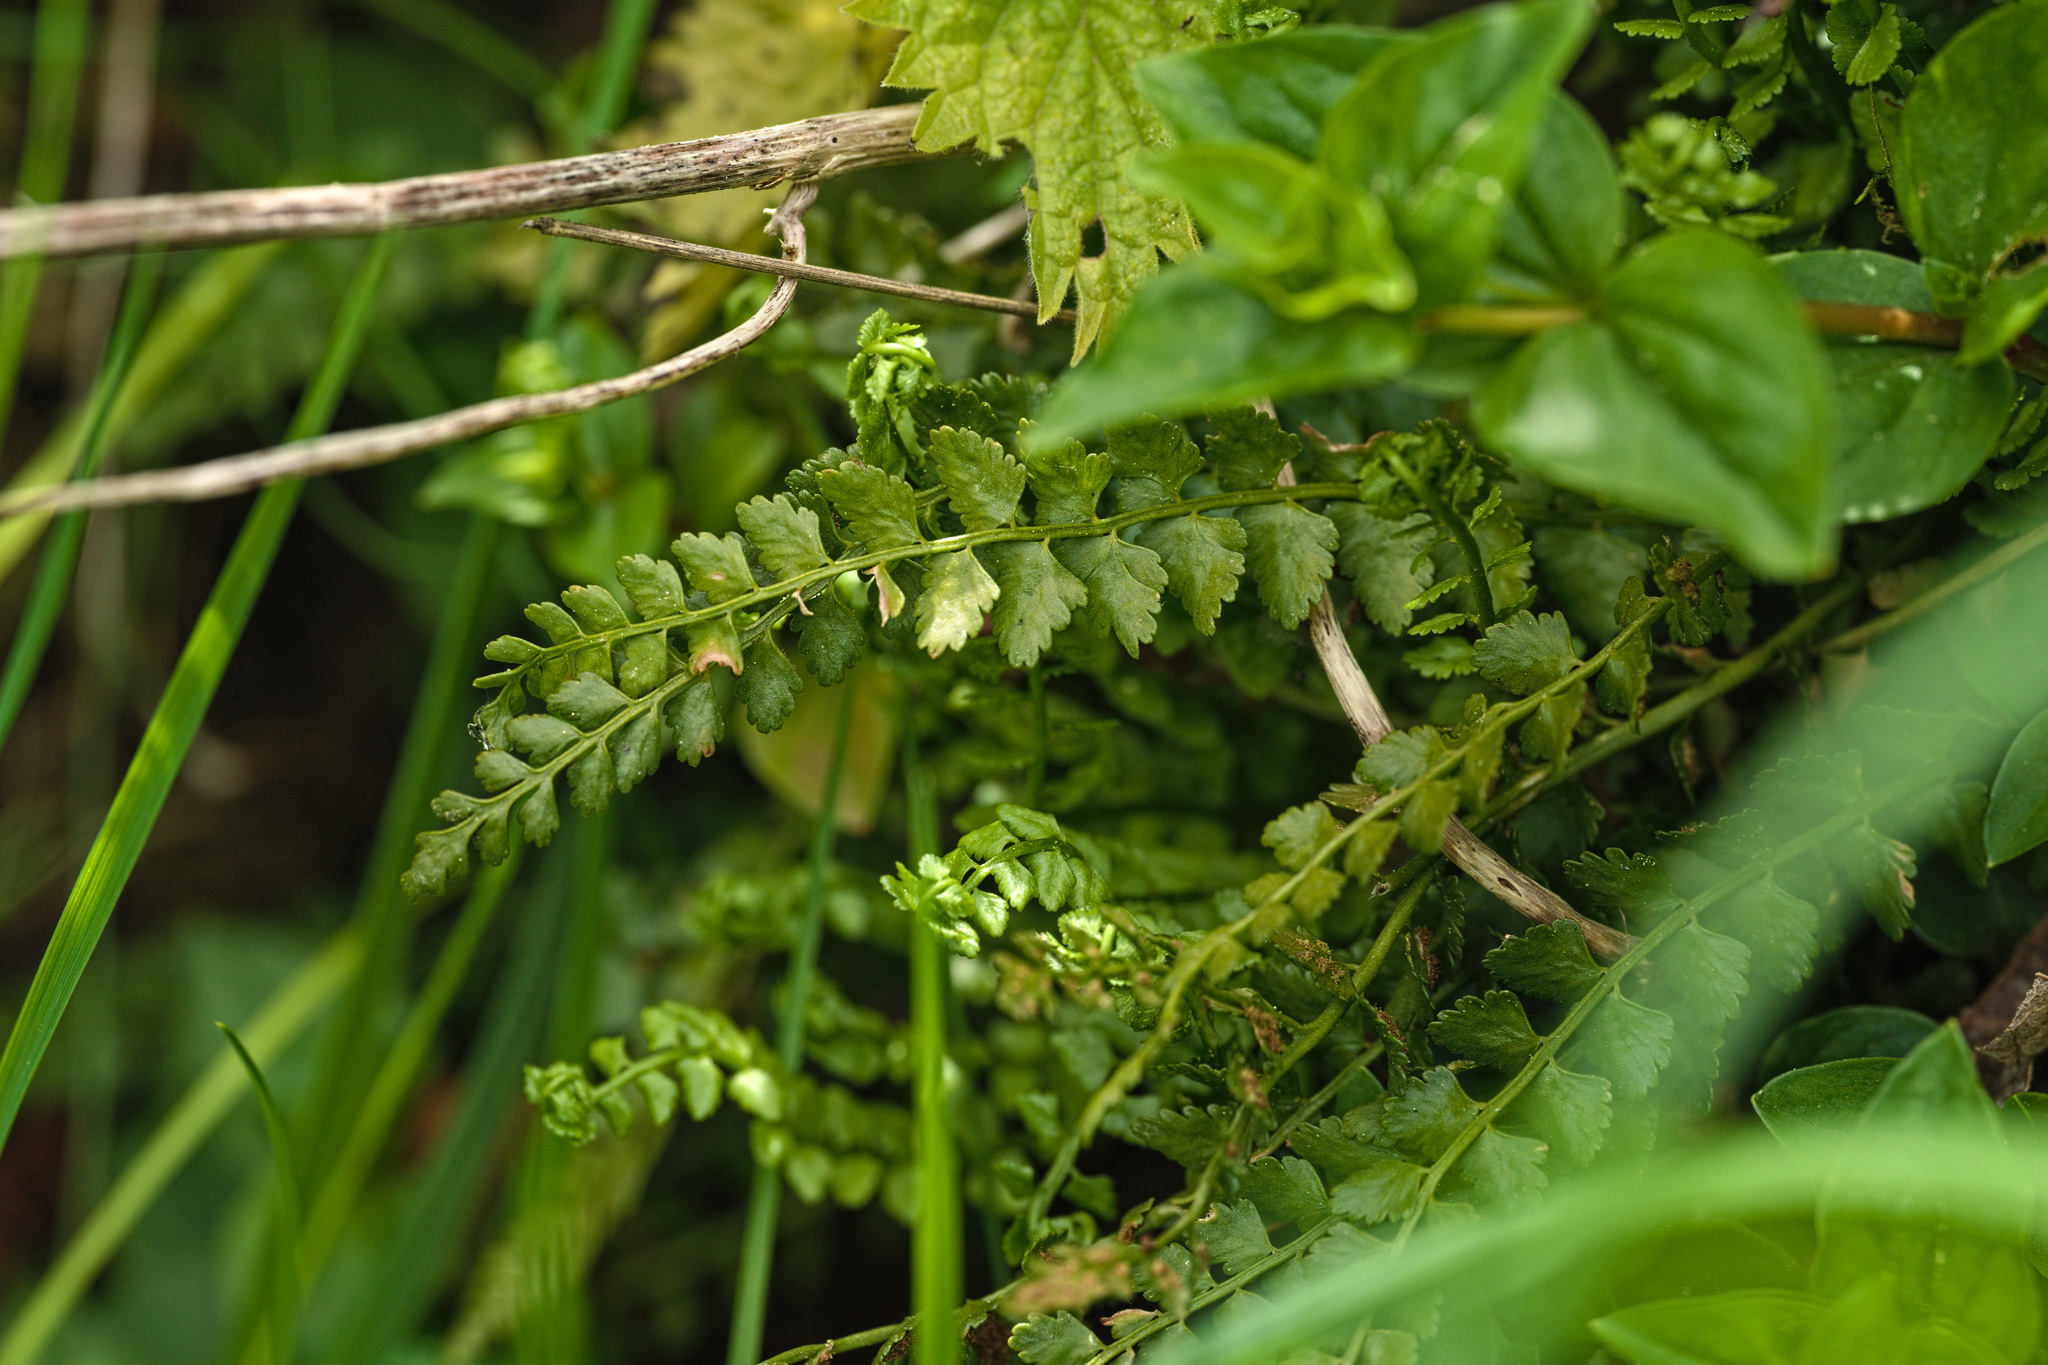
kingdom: Plantae
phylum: Tracheophyta
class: Polypodiopsida
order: Polypodiales
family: Aspleniaceae
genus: Asplenium
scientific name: Asplenium viride
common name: Green spleenwort
